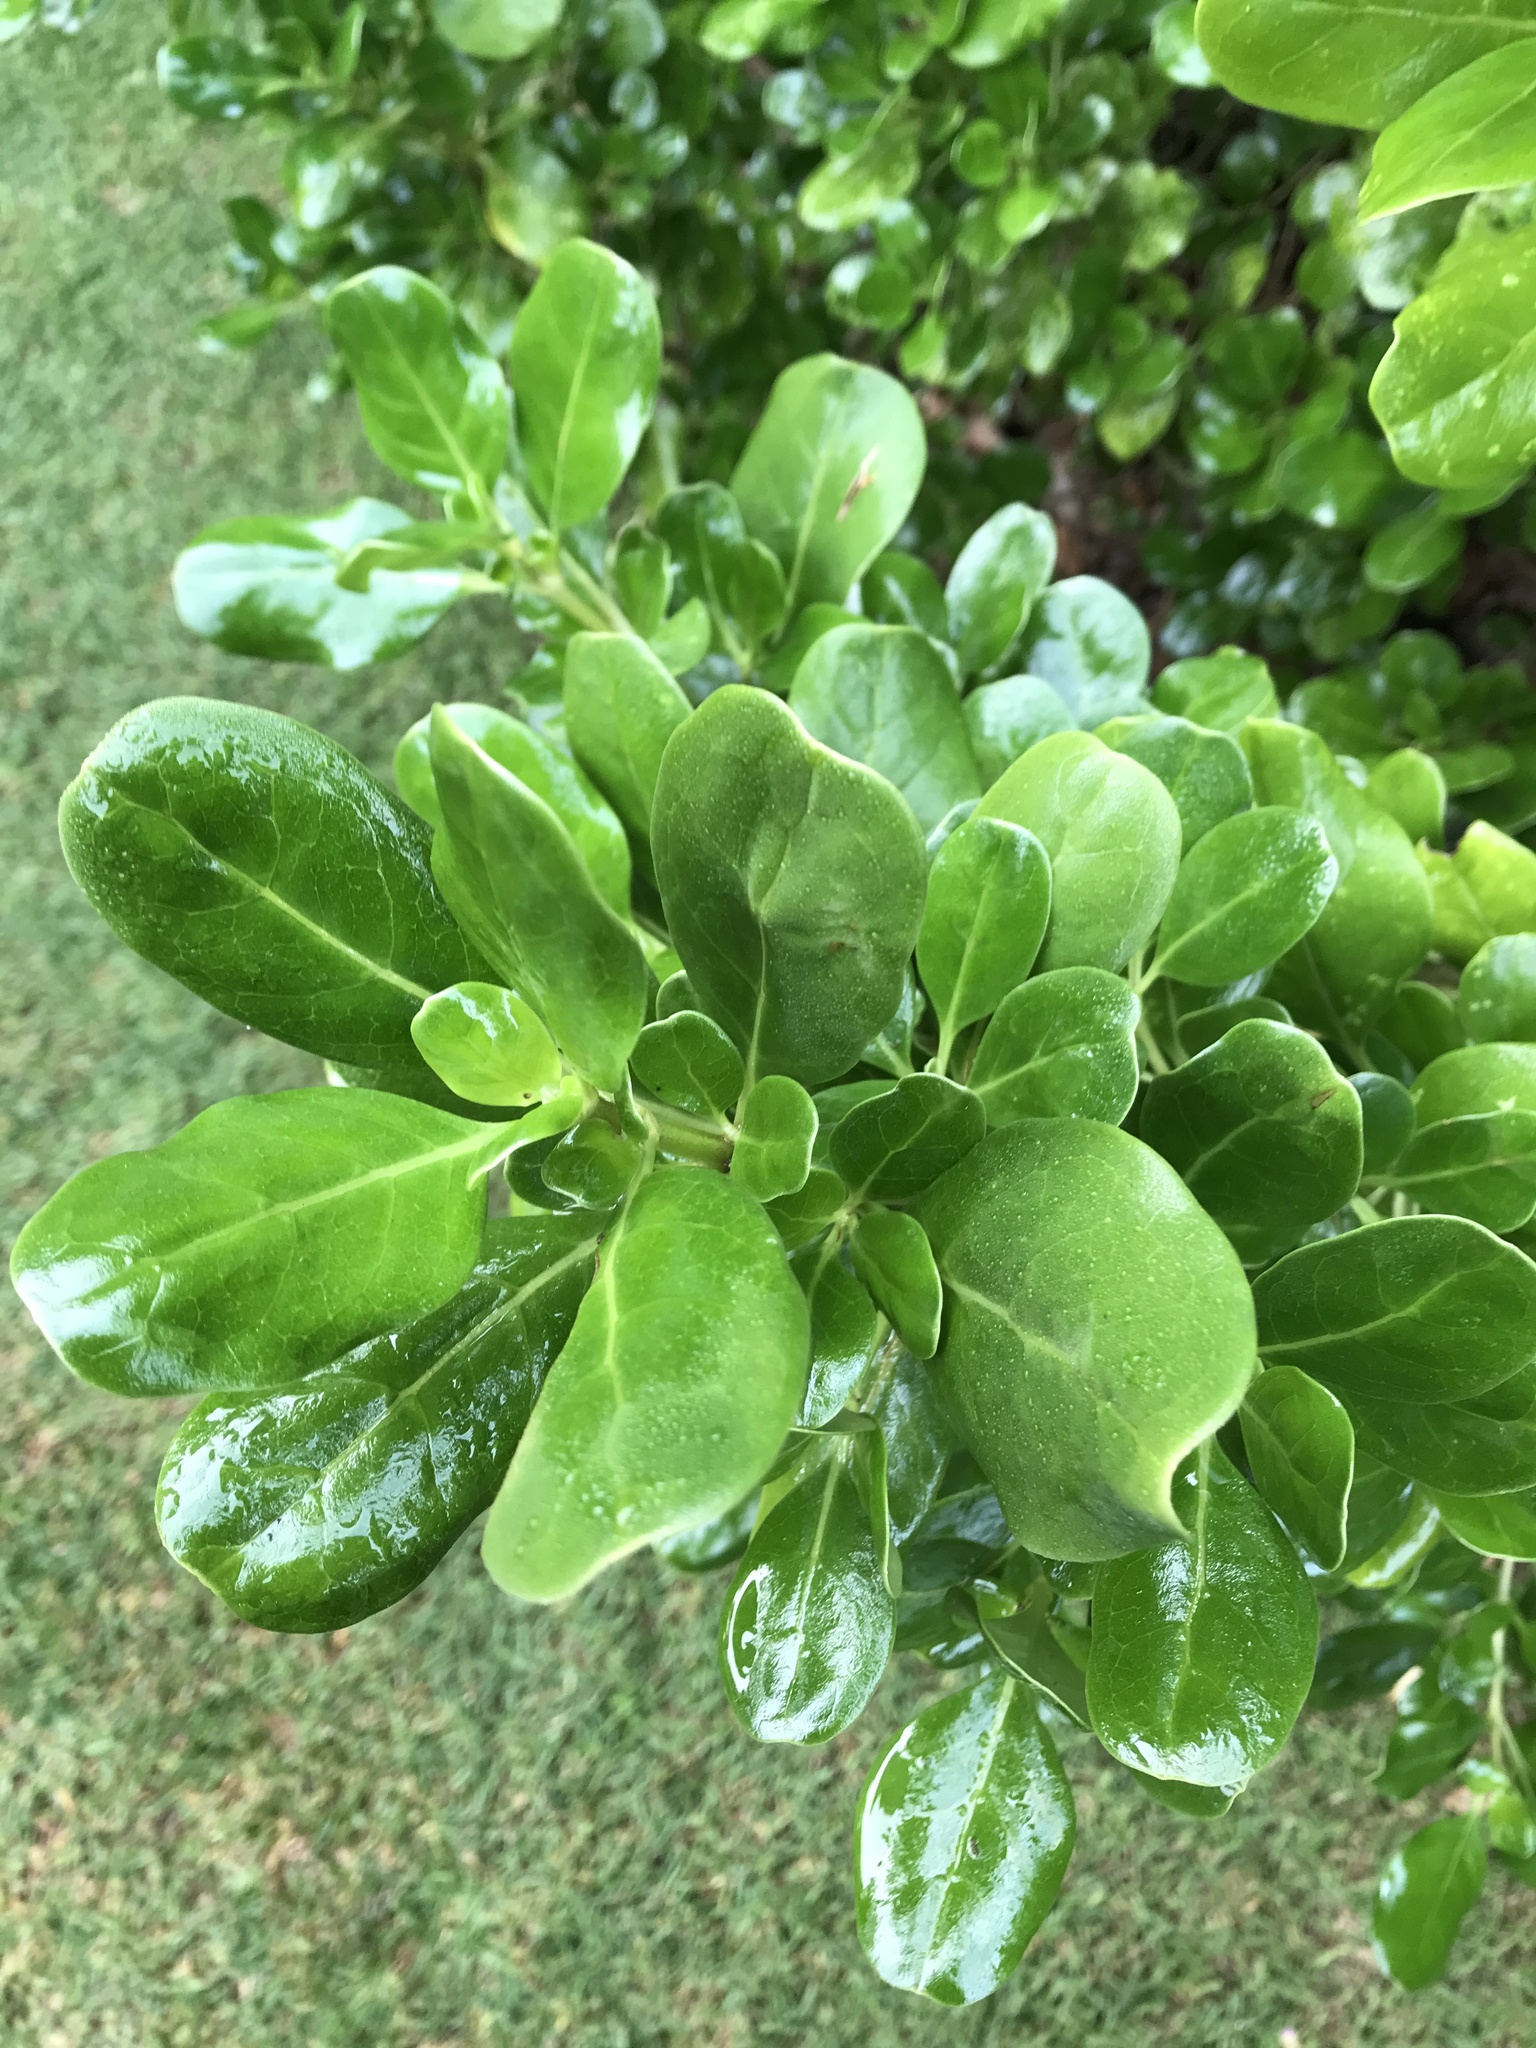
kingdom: Plantae
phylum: Tracheophyta
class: Magnoliopsida
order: Gentianales
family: Rubiaceae
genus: Coprosma
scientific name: Coprosma repens
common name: Tree bedstraw
